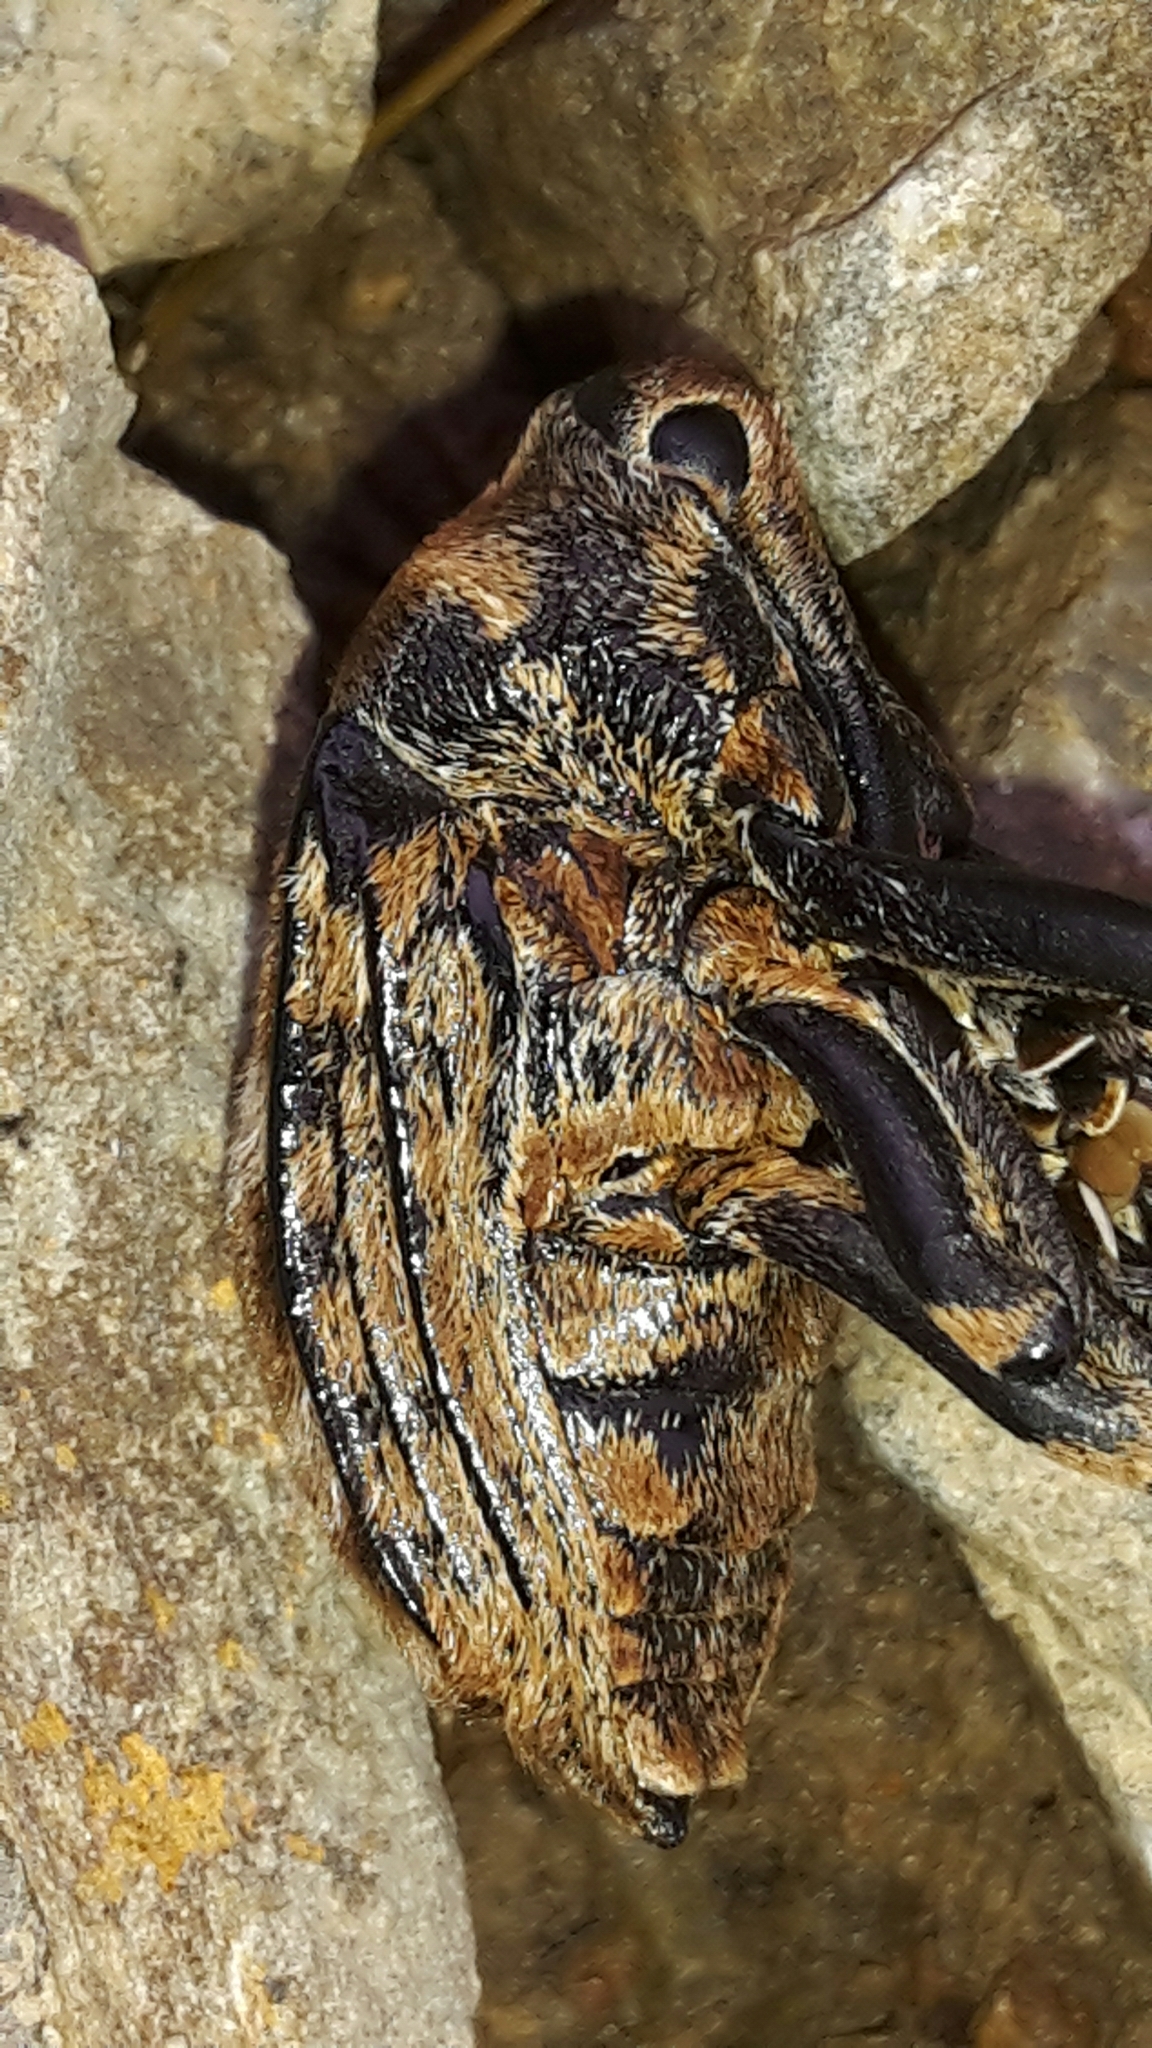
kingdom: Animalia
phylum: Arthropoda
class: Insecta
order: Coleoptera
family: Curculionidae
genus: Rhynchodes
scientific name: Rhynchodes ursus
